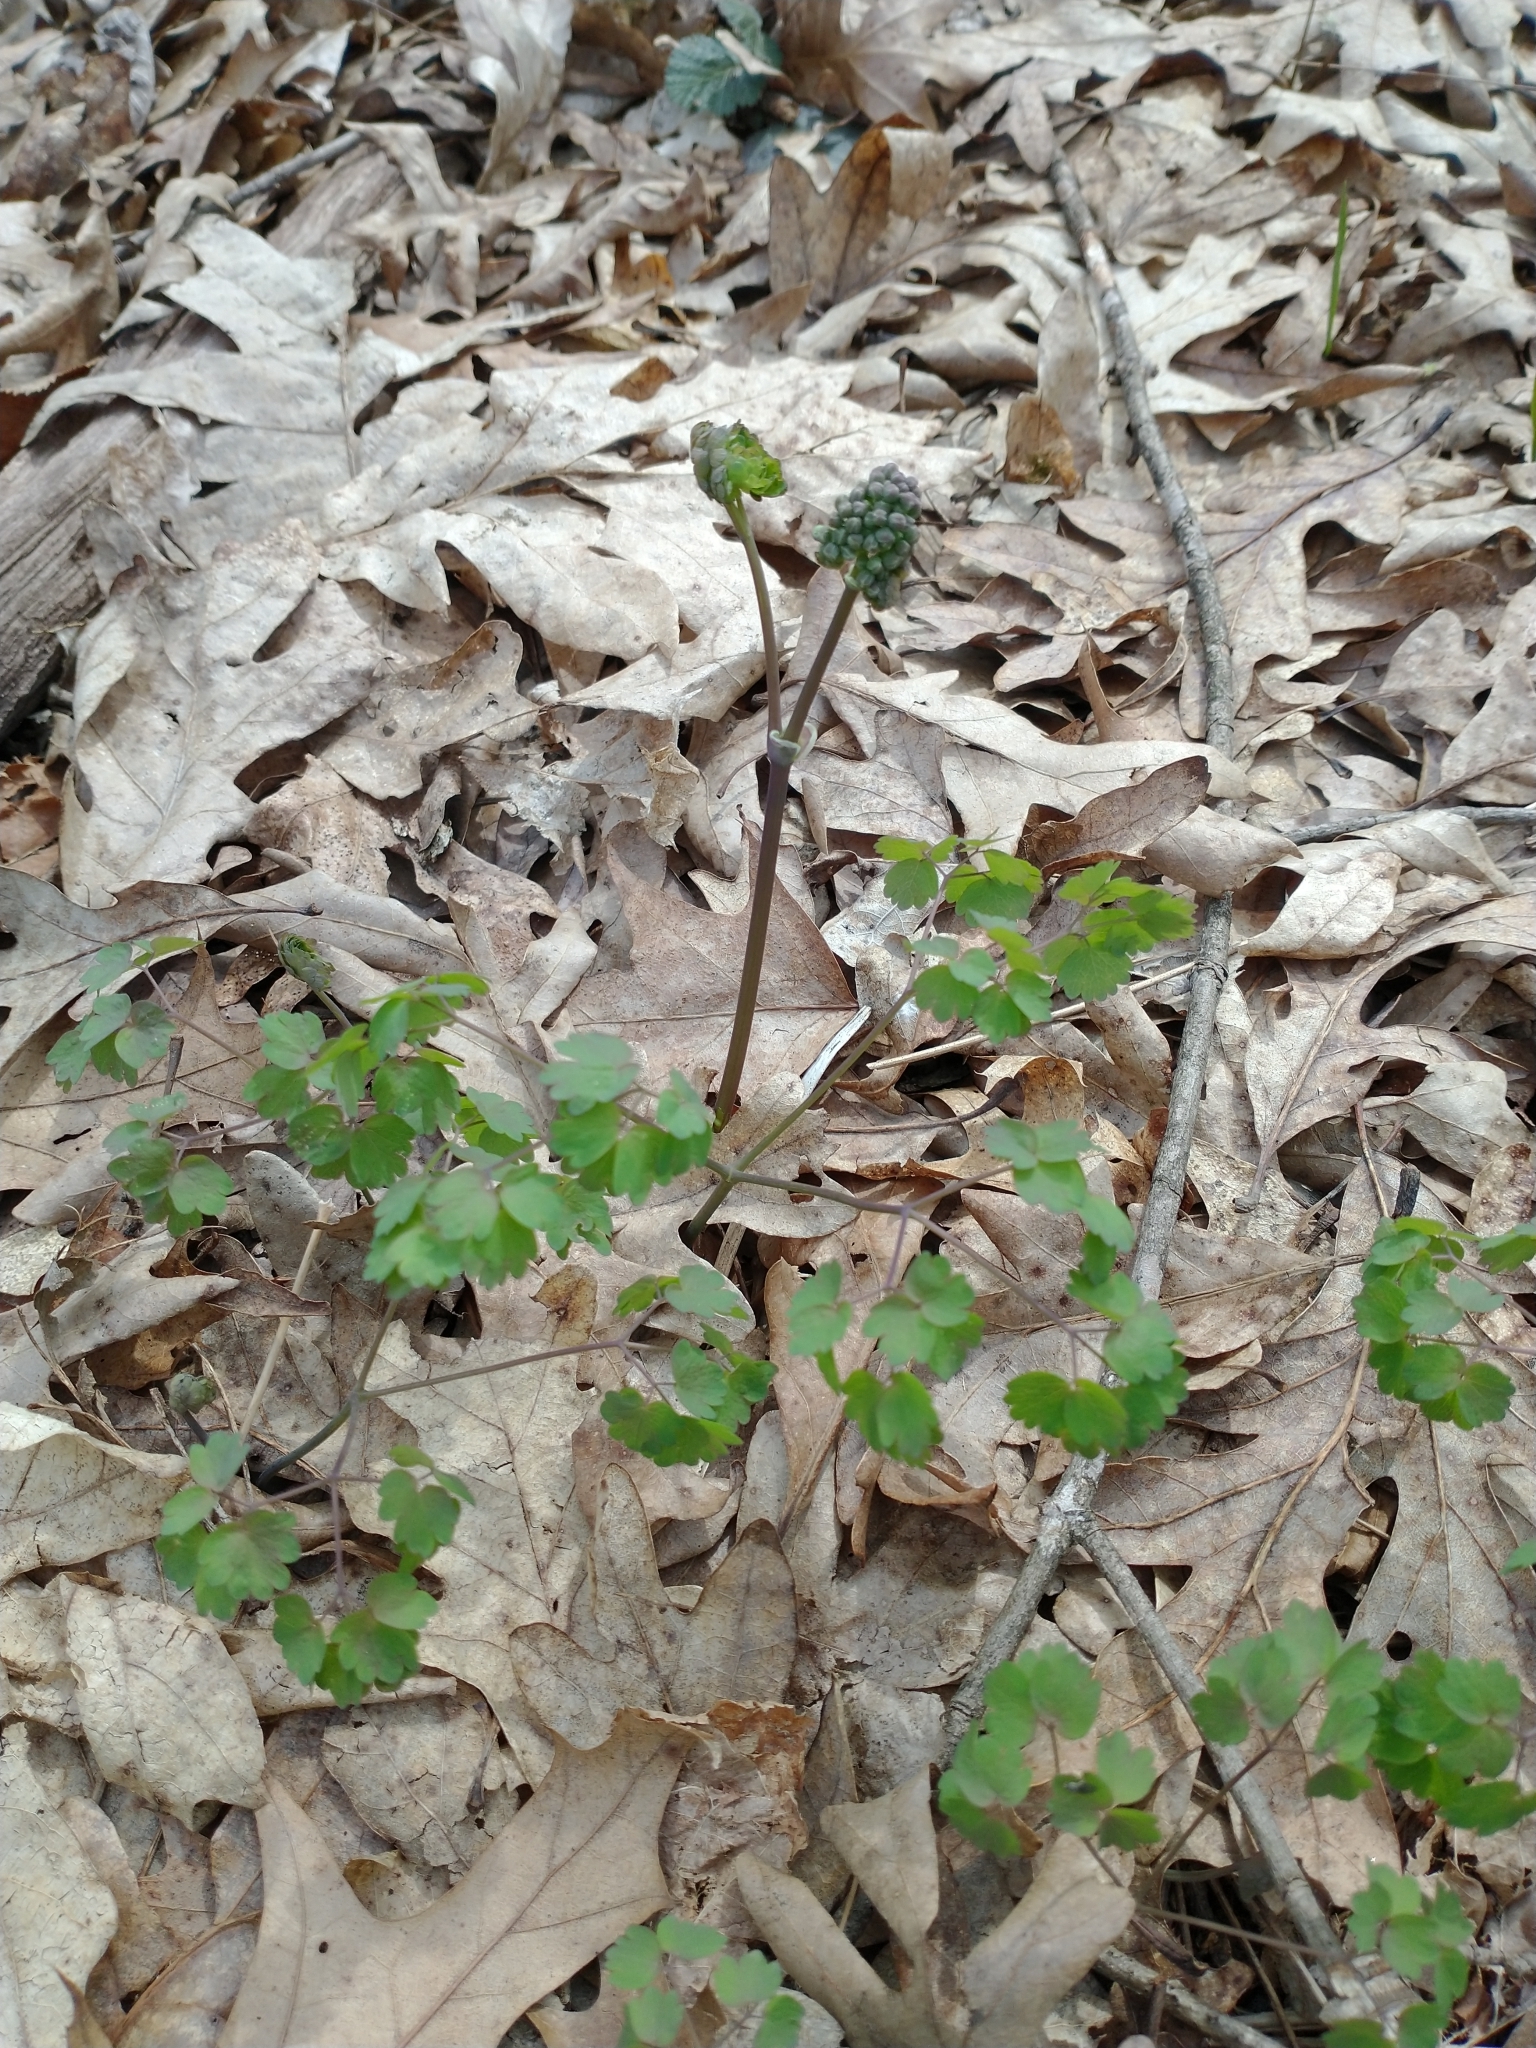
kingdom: Plantae
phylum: Tracheophyta
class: Magnoliopsida
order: Ranunculales
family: Ranunculaceae
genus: Thalictrum
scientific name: Thalictrum dioicum
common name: Early meadow-rue
